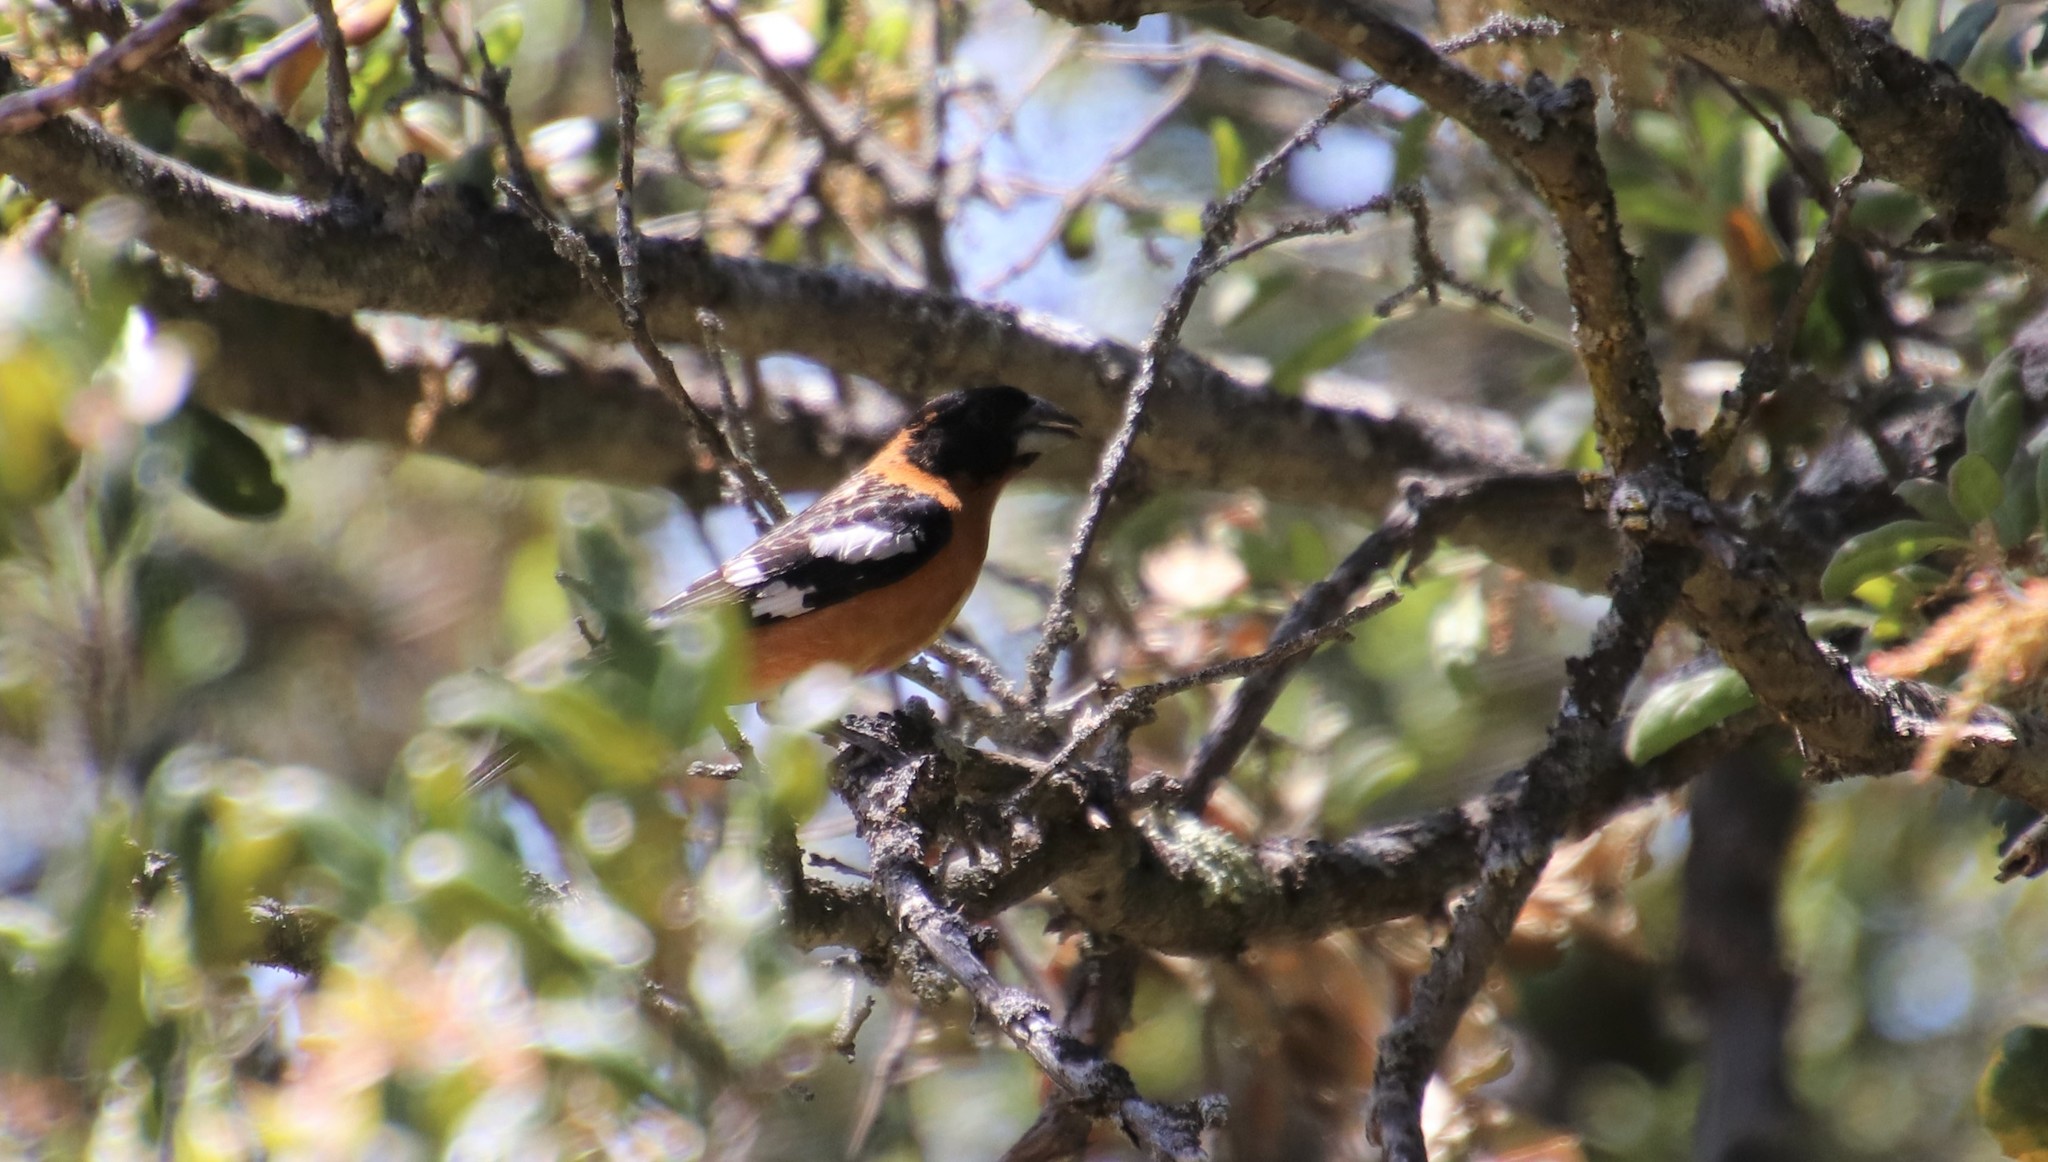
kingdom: Animalia
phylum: Chordata
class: Aves
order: Passeriformes
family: Cardinalidae
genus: Pheucticus
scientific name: Pheucticus melanocephalus
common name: Black-headed grosbeak
